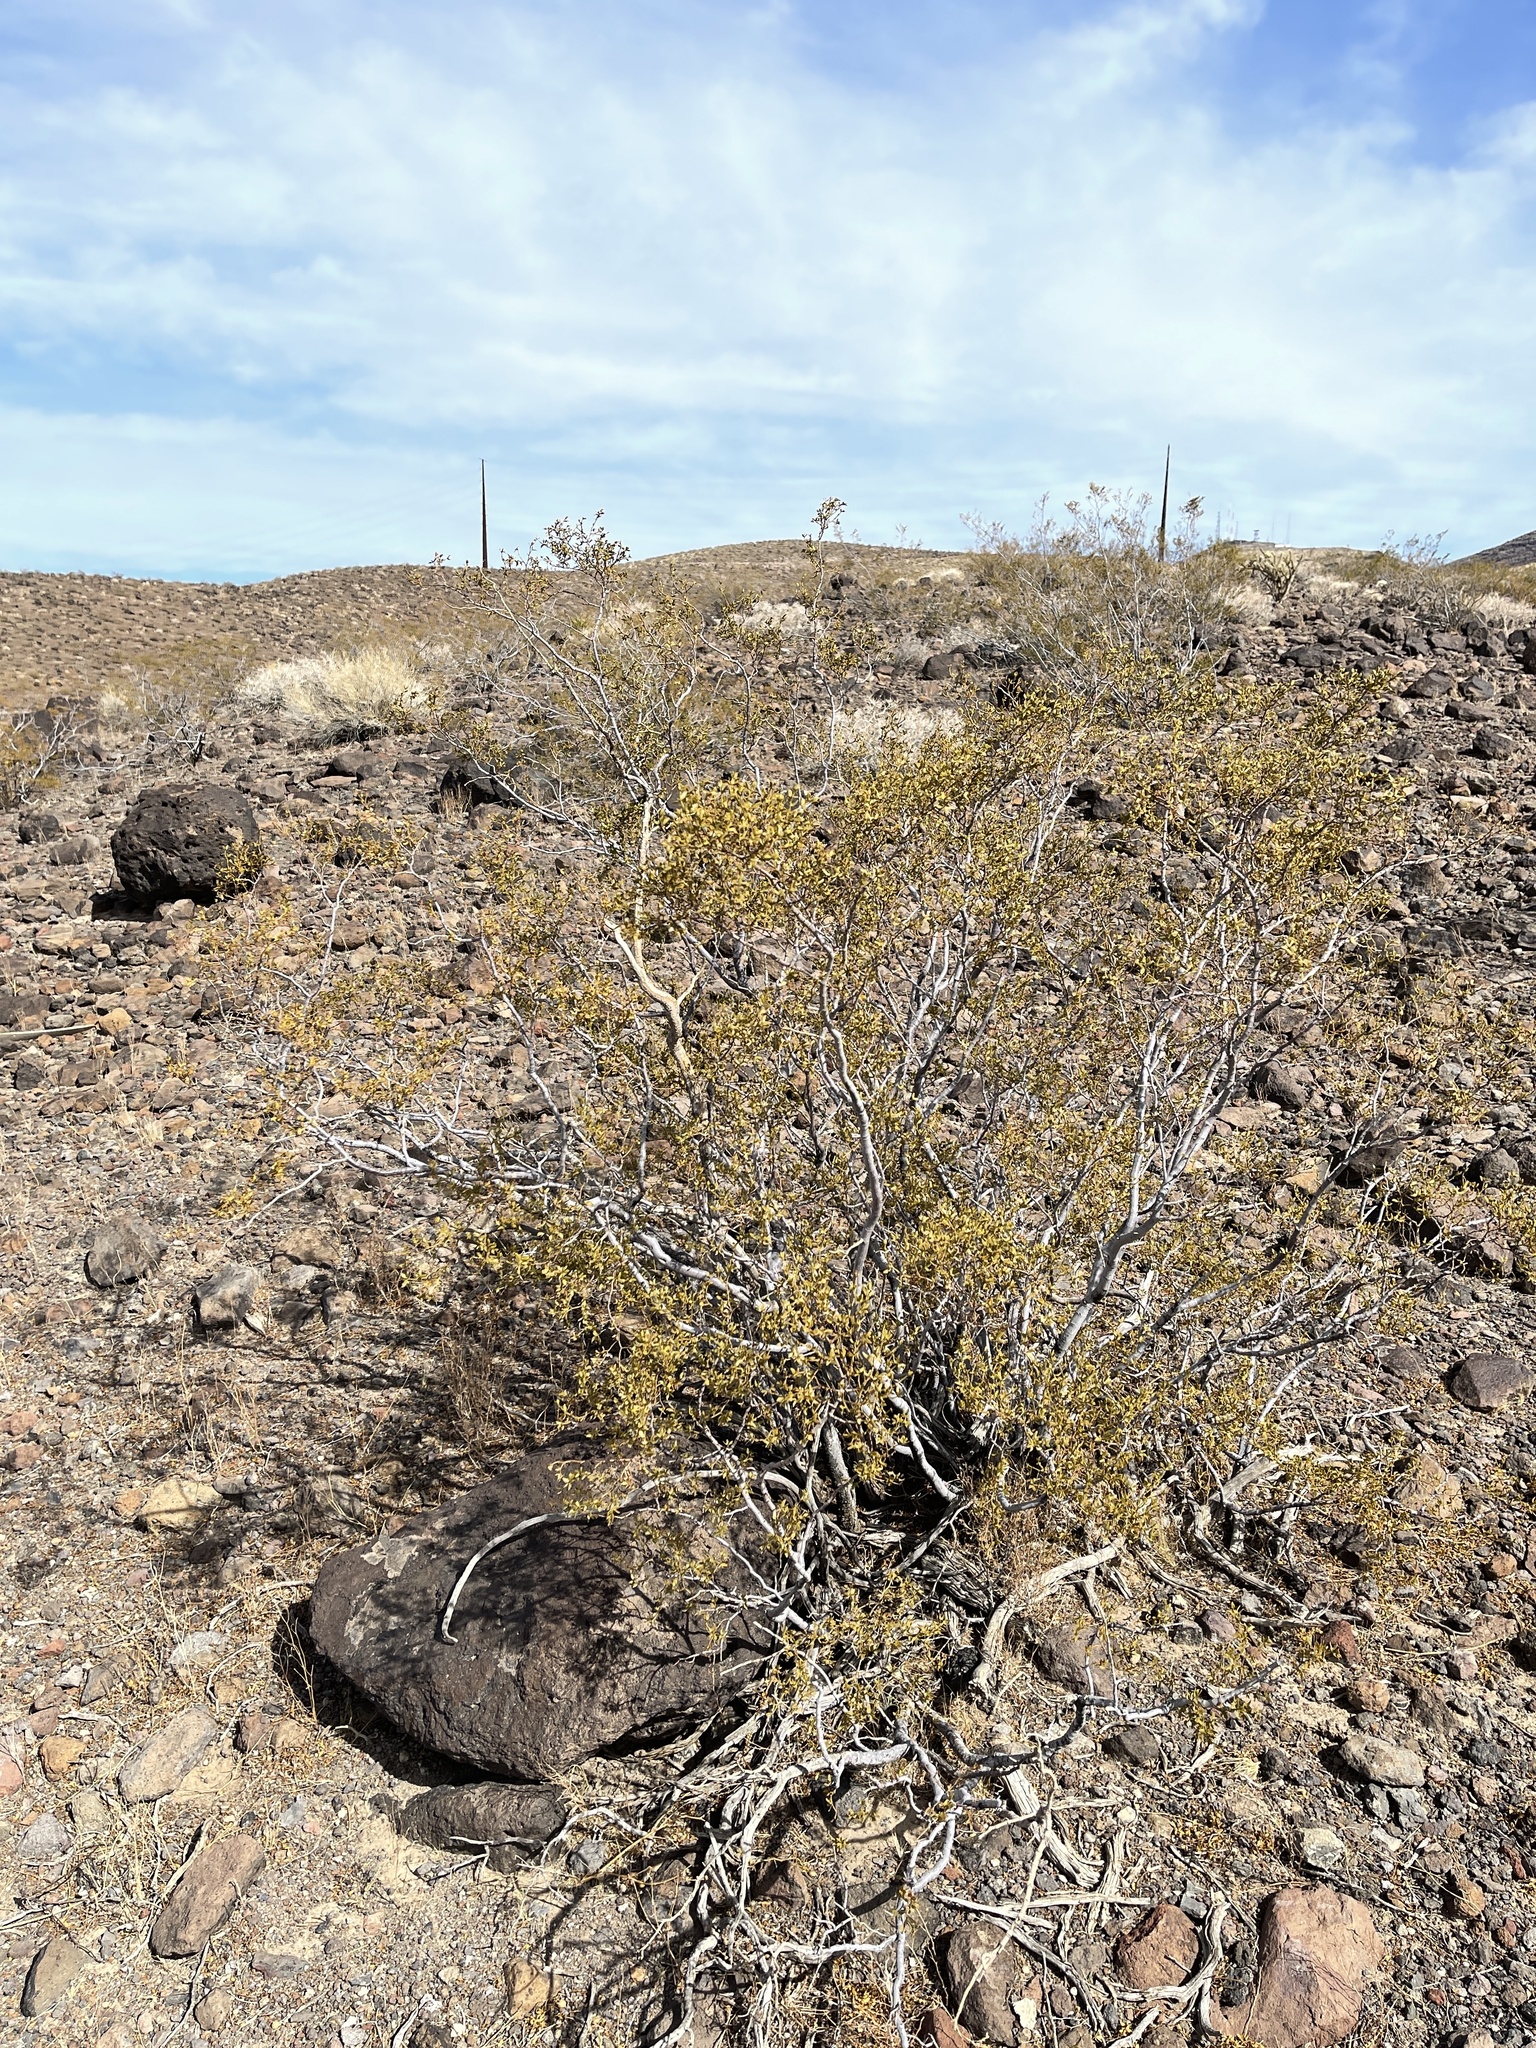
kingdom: Plantae
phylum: Tracheophyta
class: Magnoliopsida
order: Zygophyllales
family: Zygophyllaceae
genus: Larrea
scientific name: Larrea tridentata
